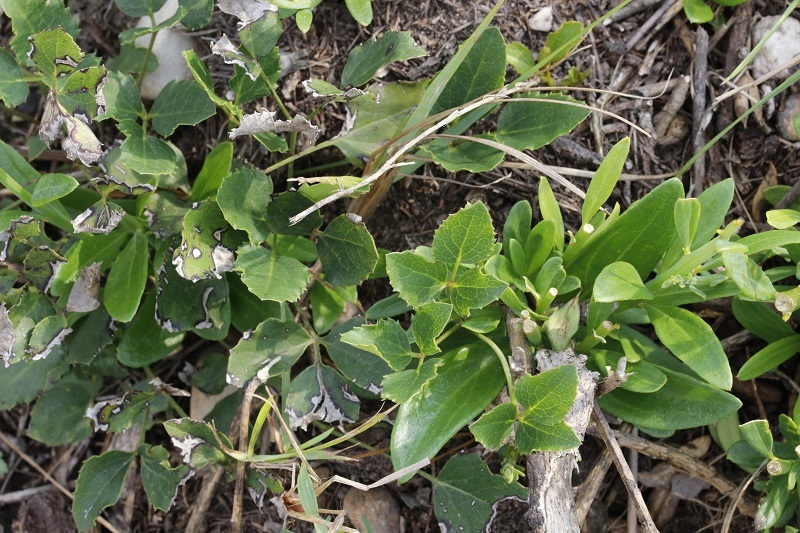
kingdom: Plantae
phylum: Tracheophyta
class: Magnoliopsida
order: Ranunculales
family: Ranunculaceae
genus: Knowltonia
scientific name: Knowltonia vesicatoria
